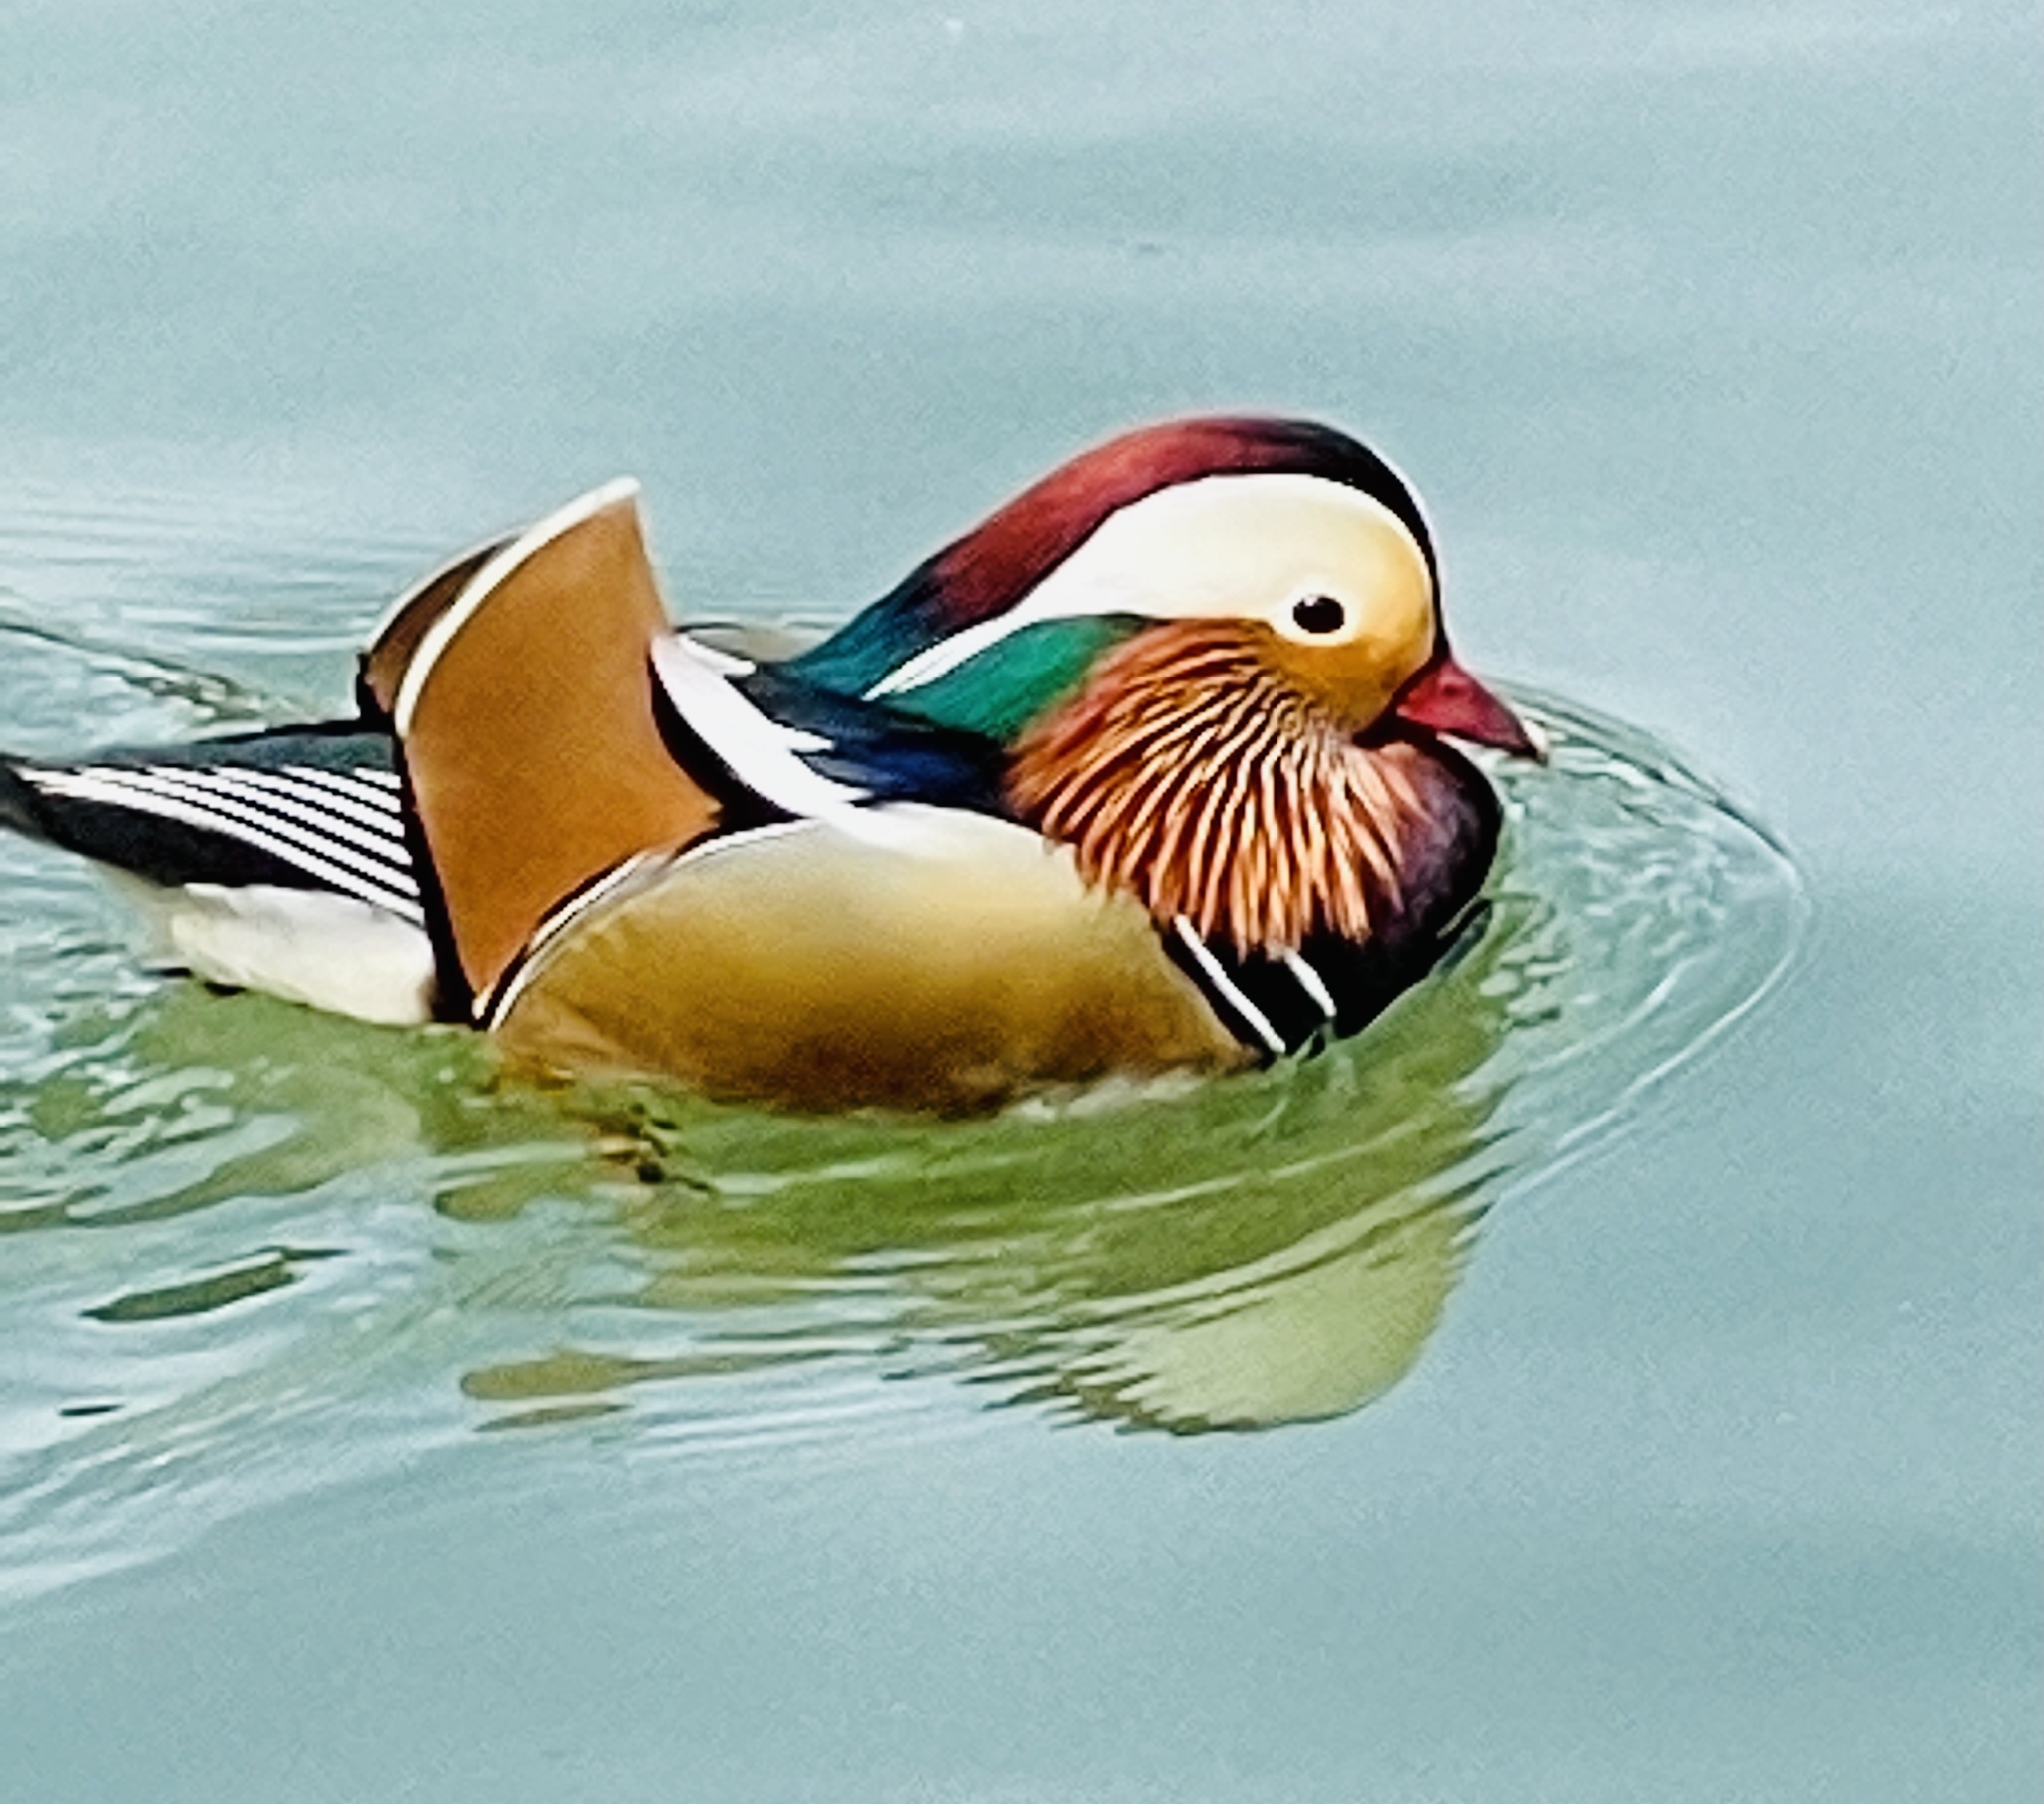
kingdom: Animalia
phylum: Chordata
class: Aves
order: Anseriformes
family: Anatidae
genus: Aix
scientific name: Aix galericulata
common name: Mandarin duck
